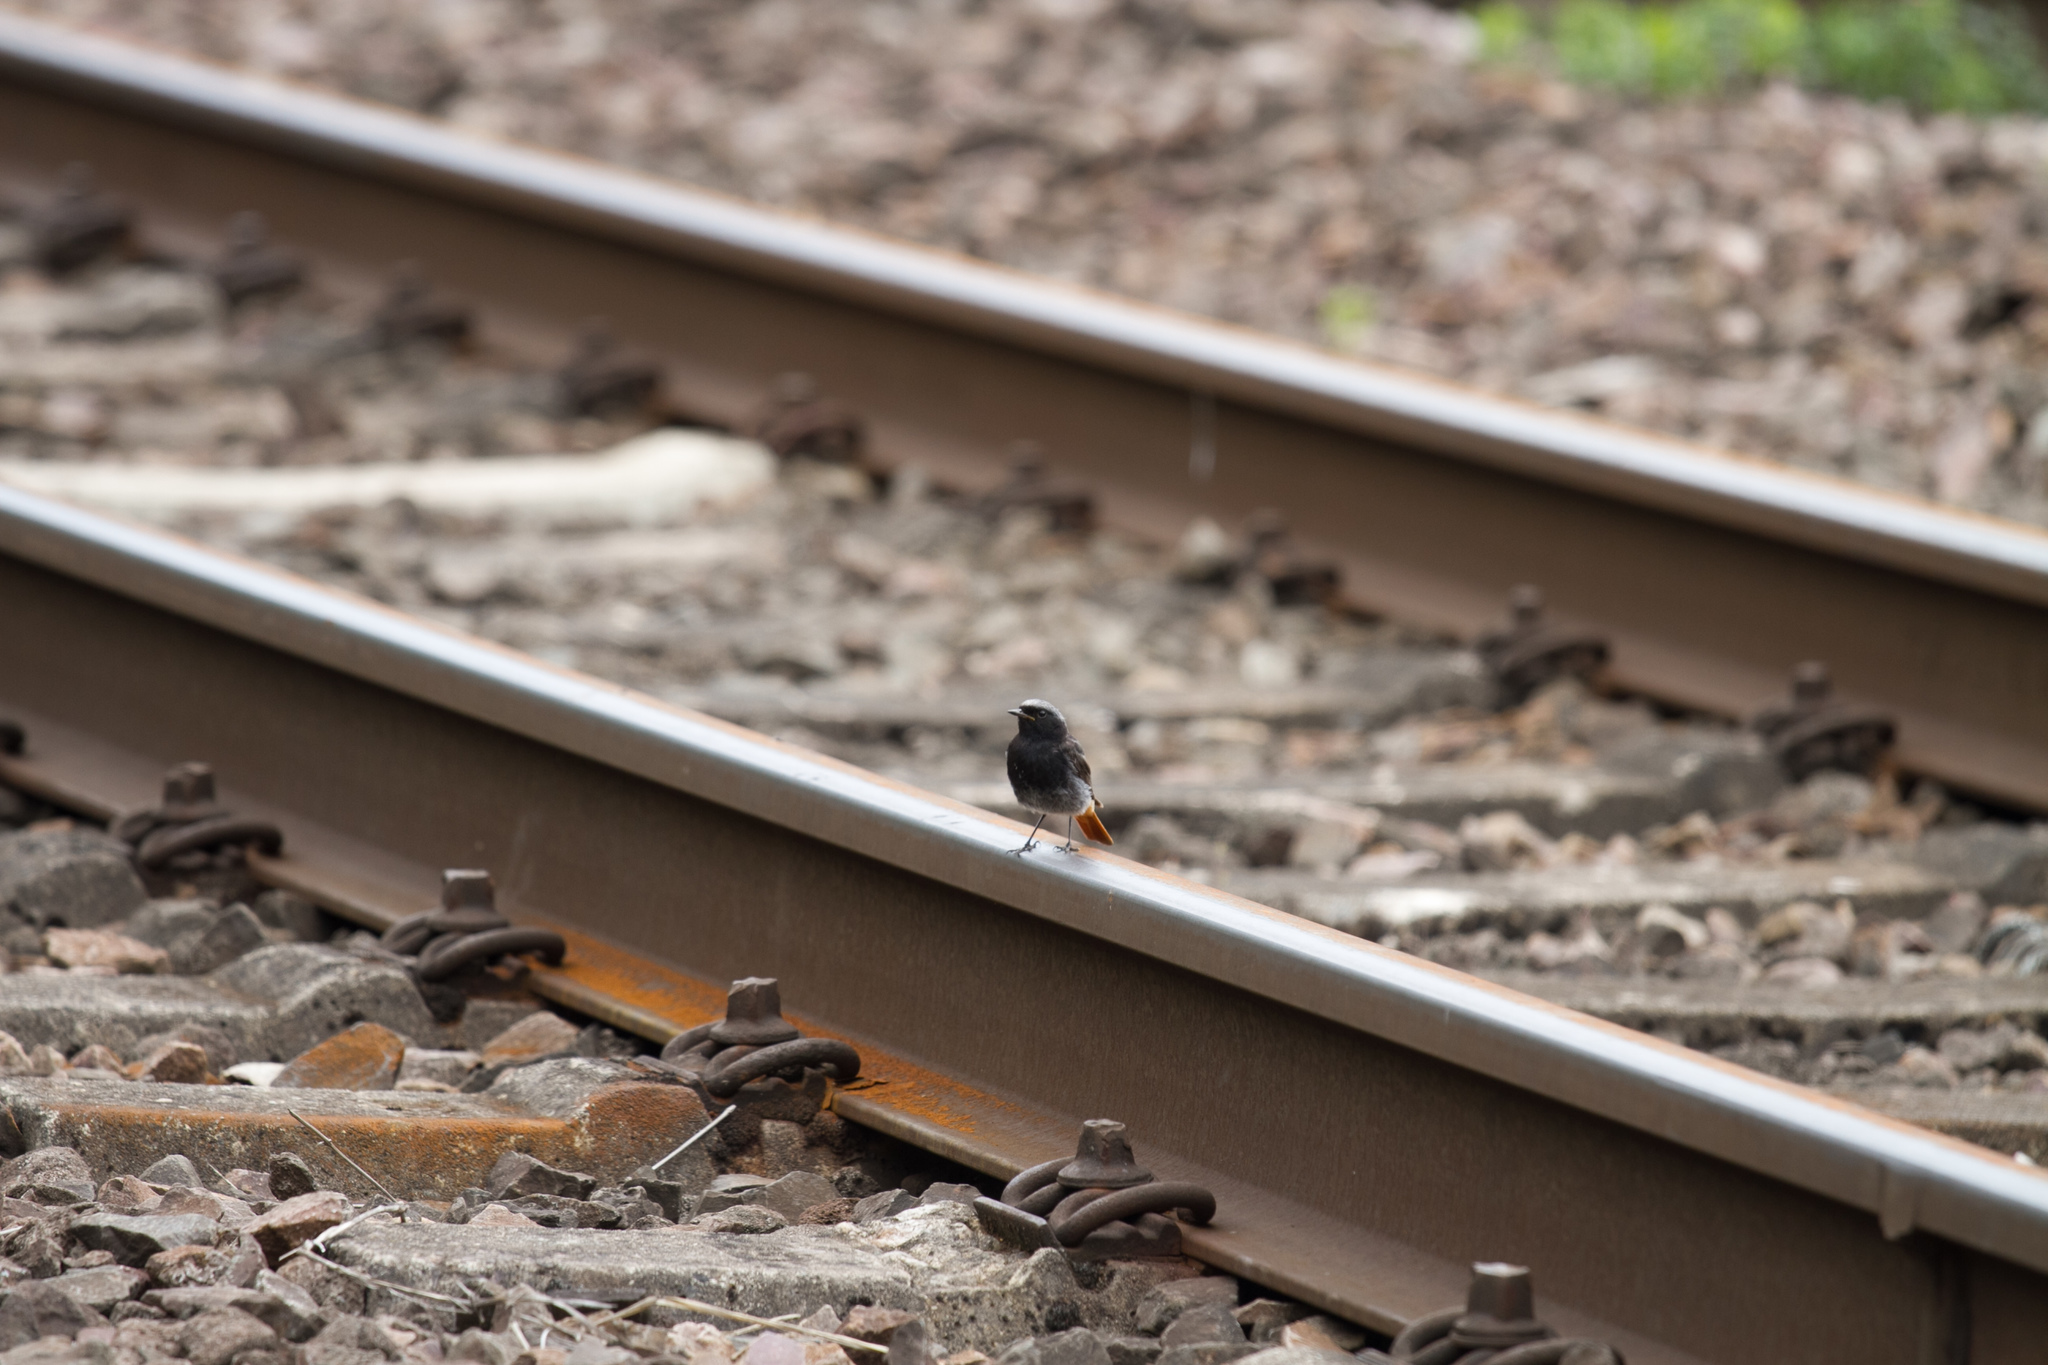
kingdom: Animalia
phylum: Chordata
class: Aves
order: Passeriformes
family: Muscicapidae
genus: Phoenicurus
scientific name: Phoenicurus ochruros
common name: Black redstart
